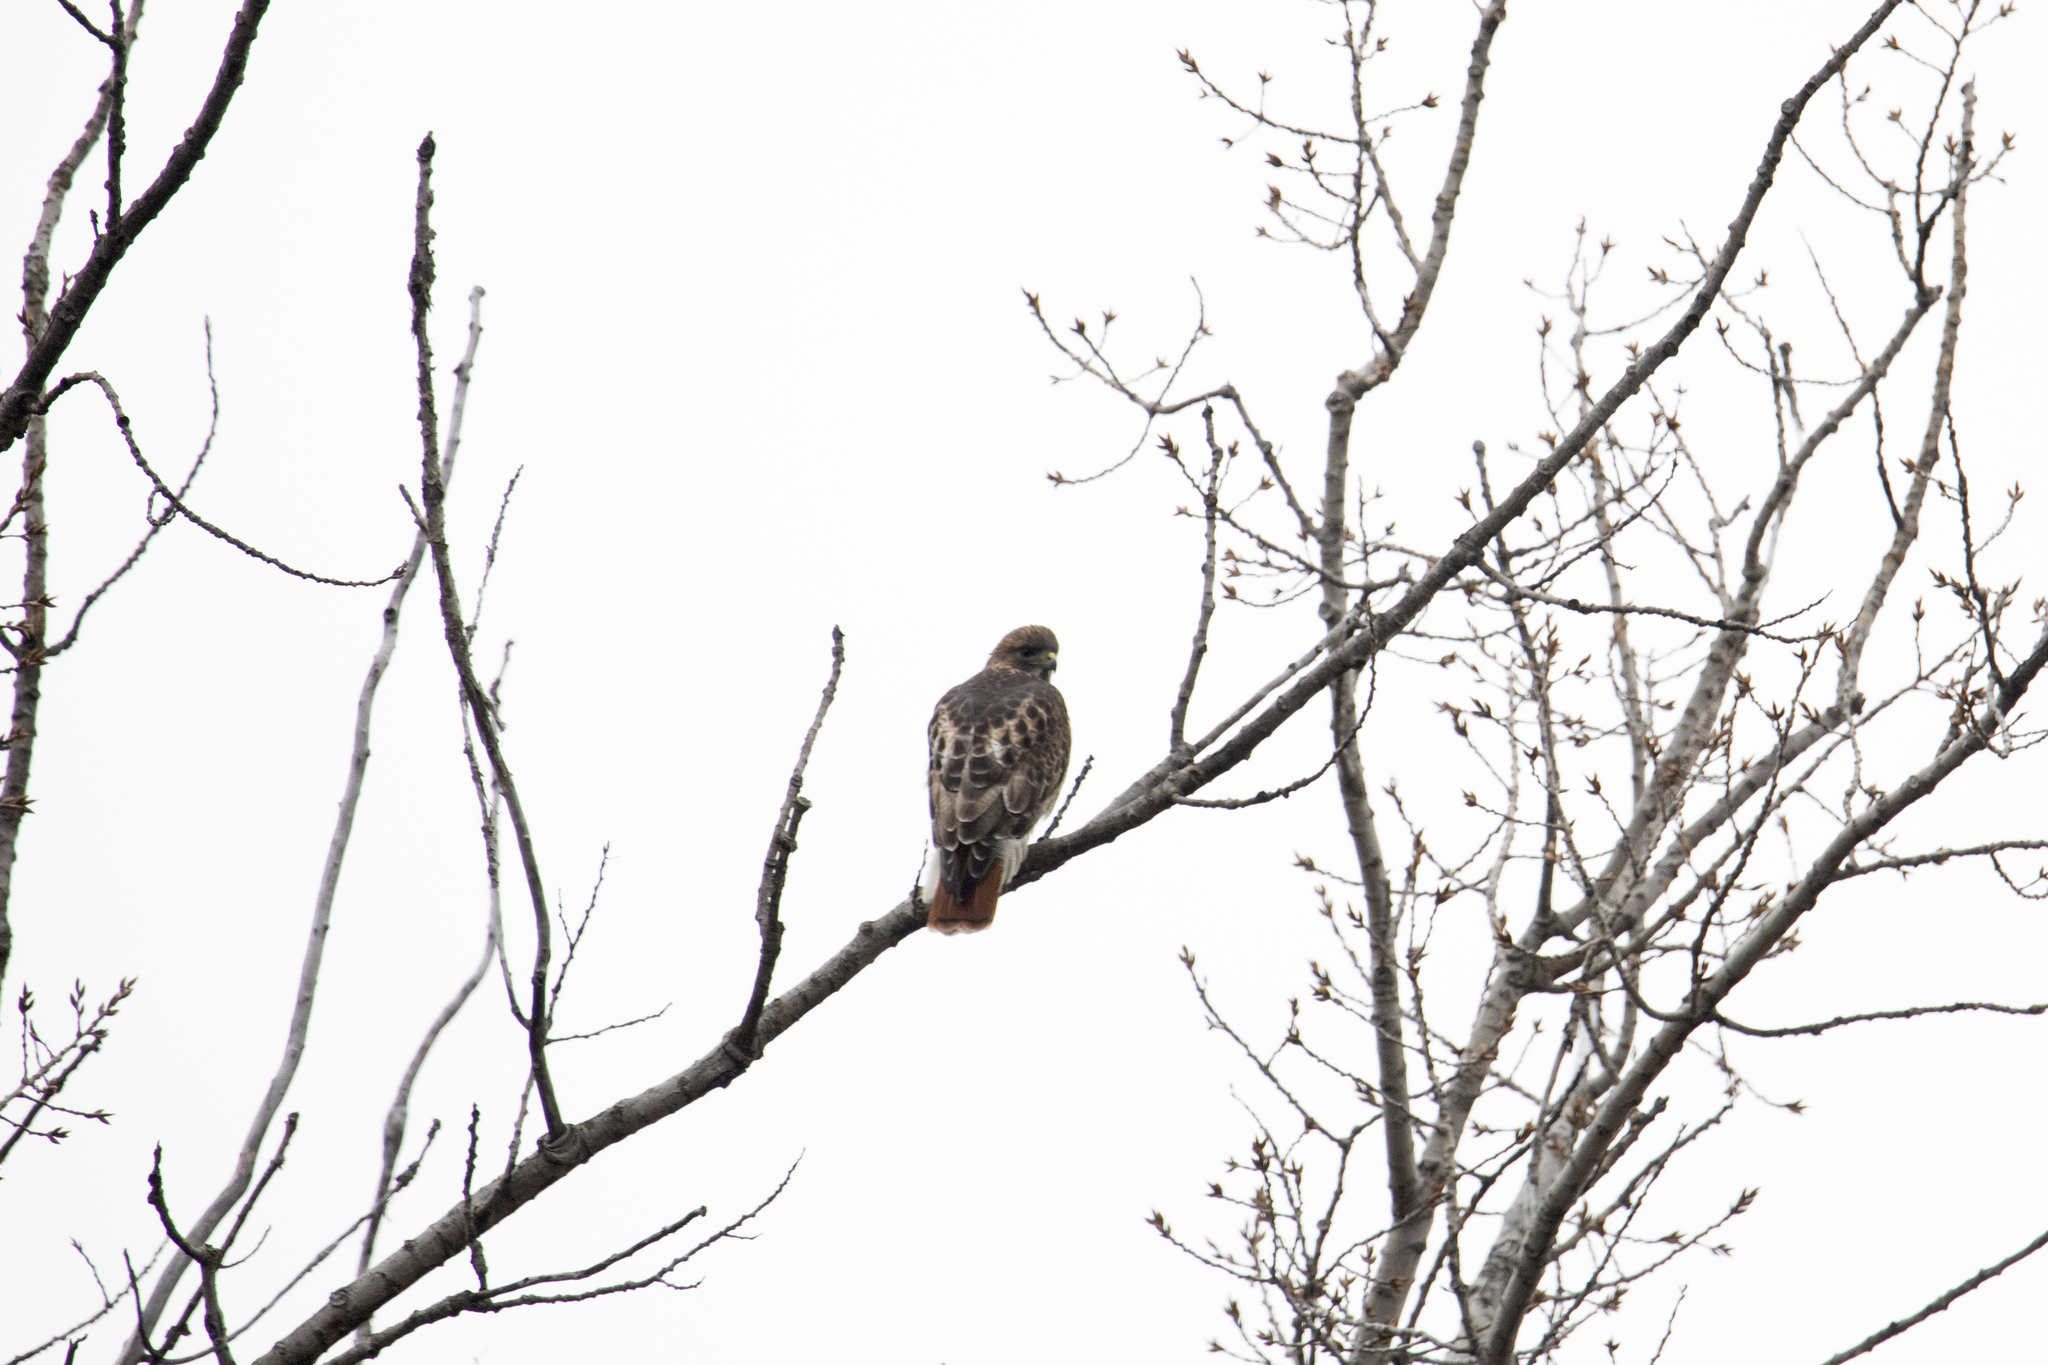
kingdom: Animalia
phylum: Chordata
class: Aves
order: Accipitriformes
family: Accipitridae
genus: Buteo
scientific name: Buteo jamaicensis
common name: Red-tailed hawk
